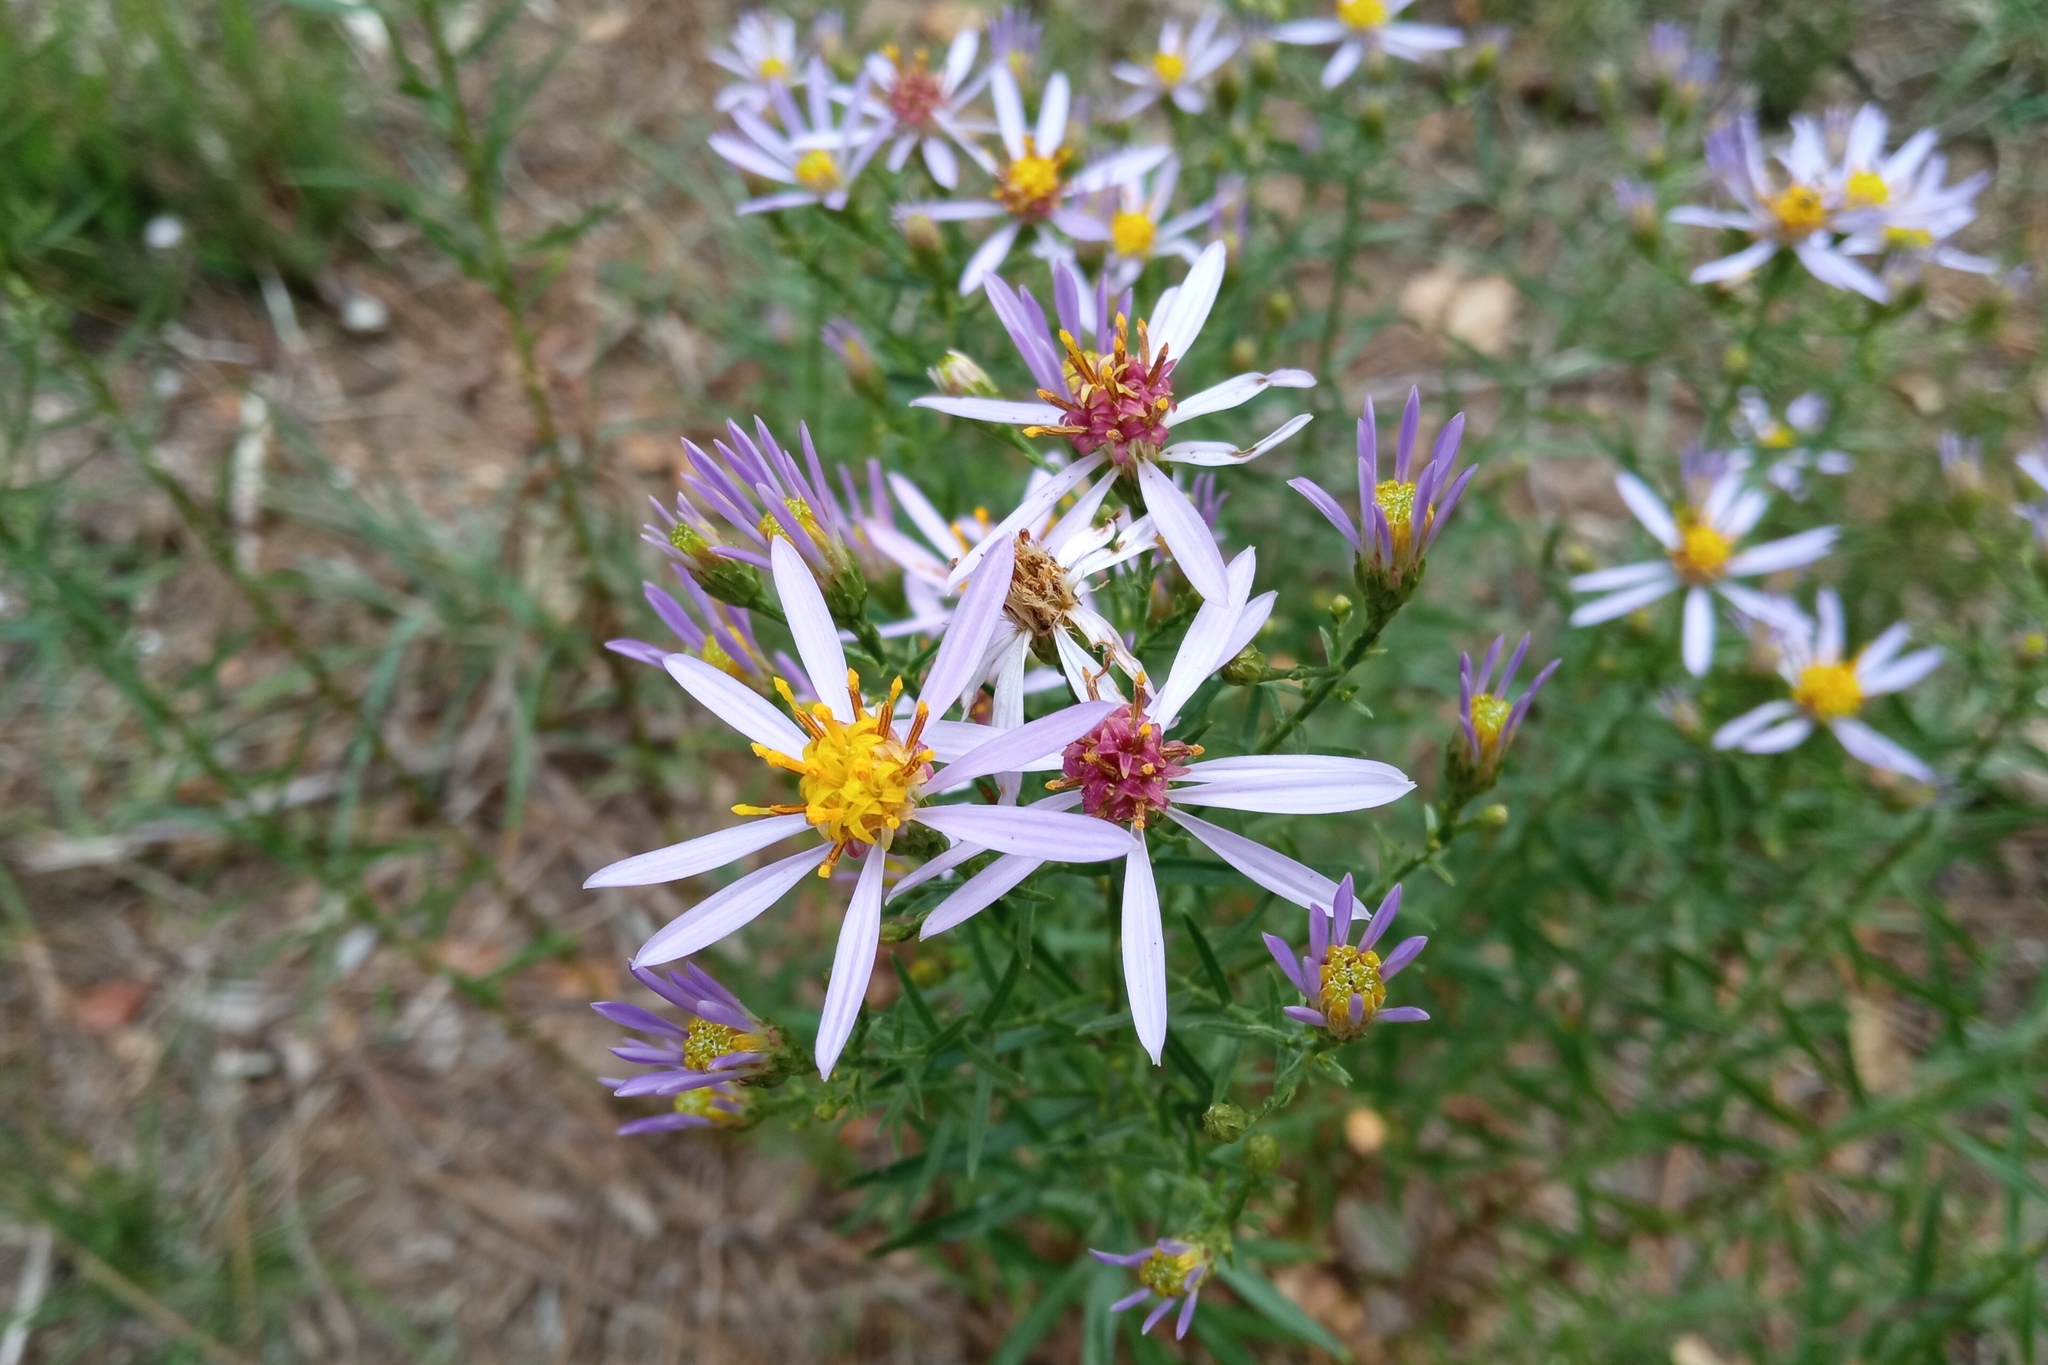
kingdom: Plantae
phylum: Tracheophyta
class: Magnoliopsida
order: Asterales
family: Asteraceae
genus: Galatella
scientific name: Galatella sedifolia
